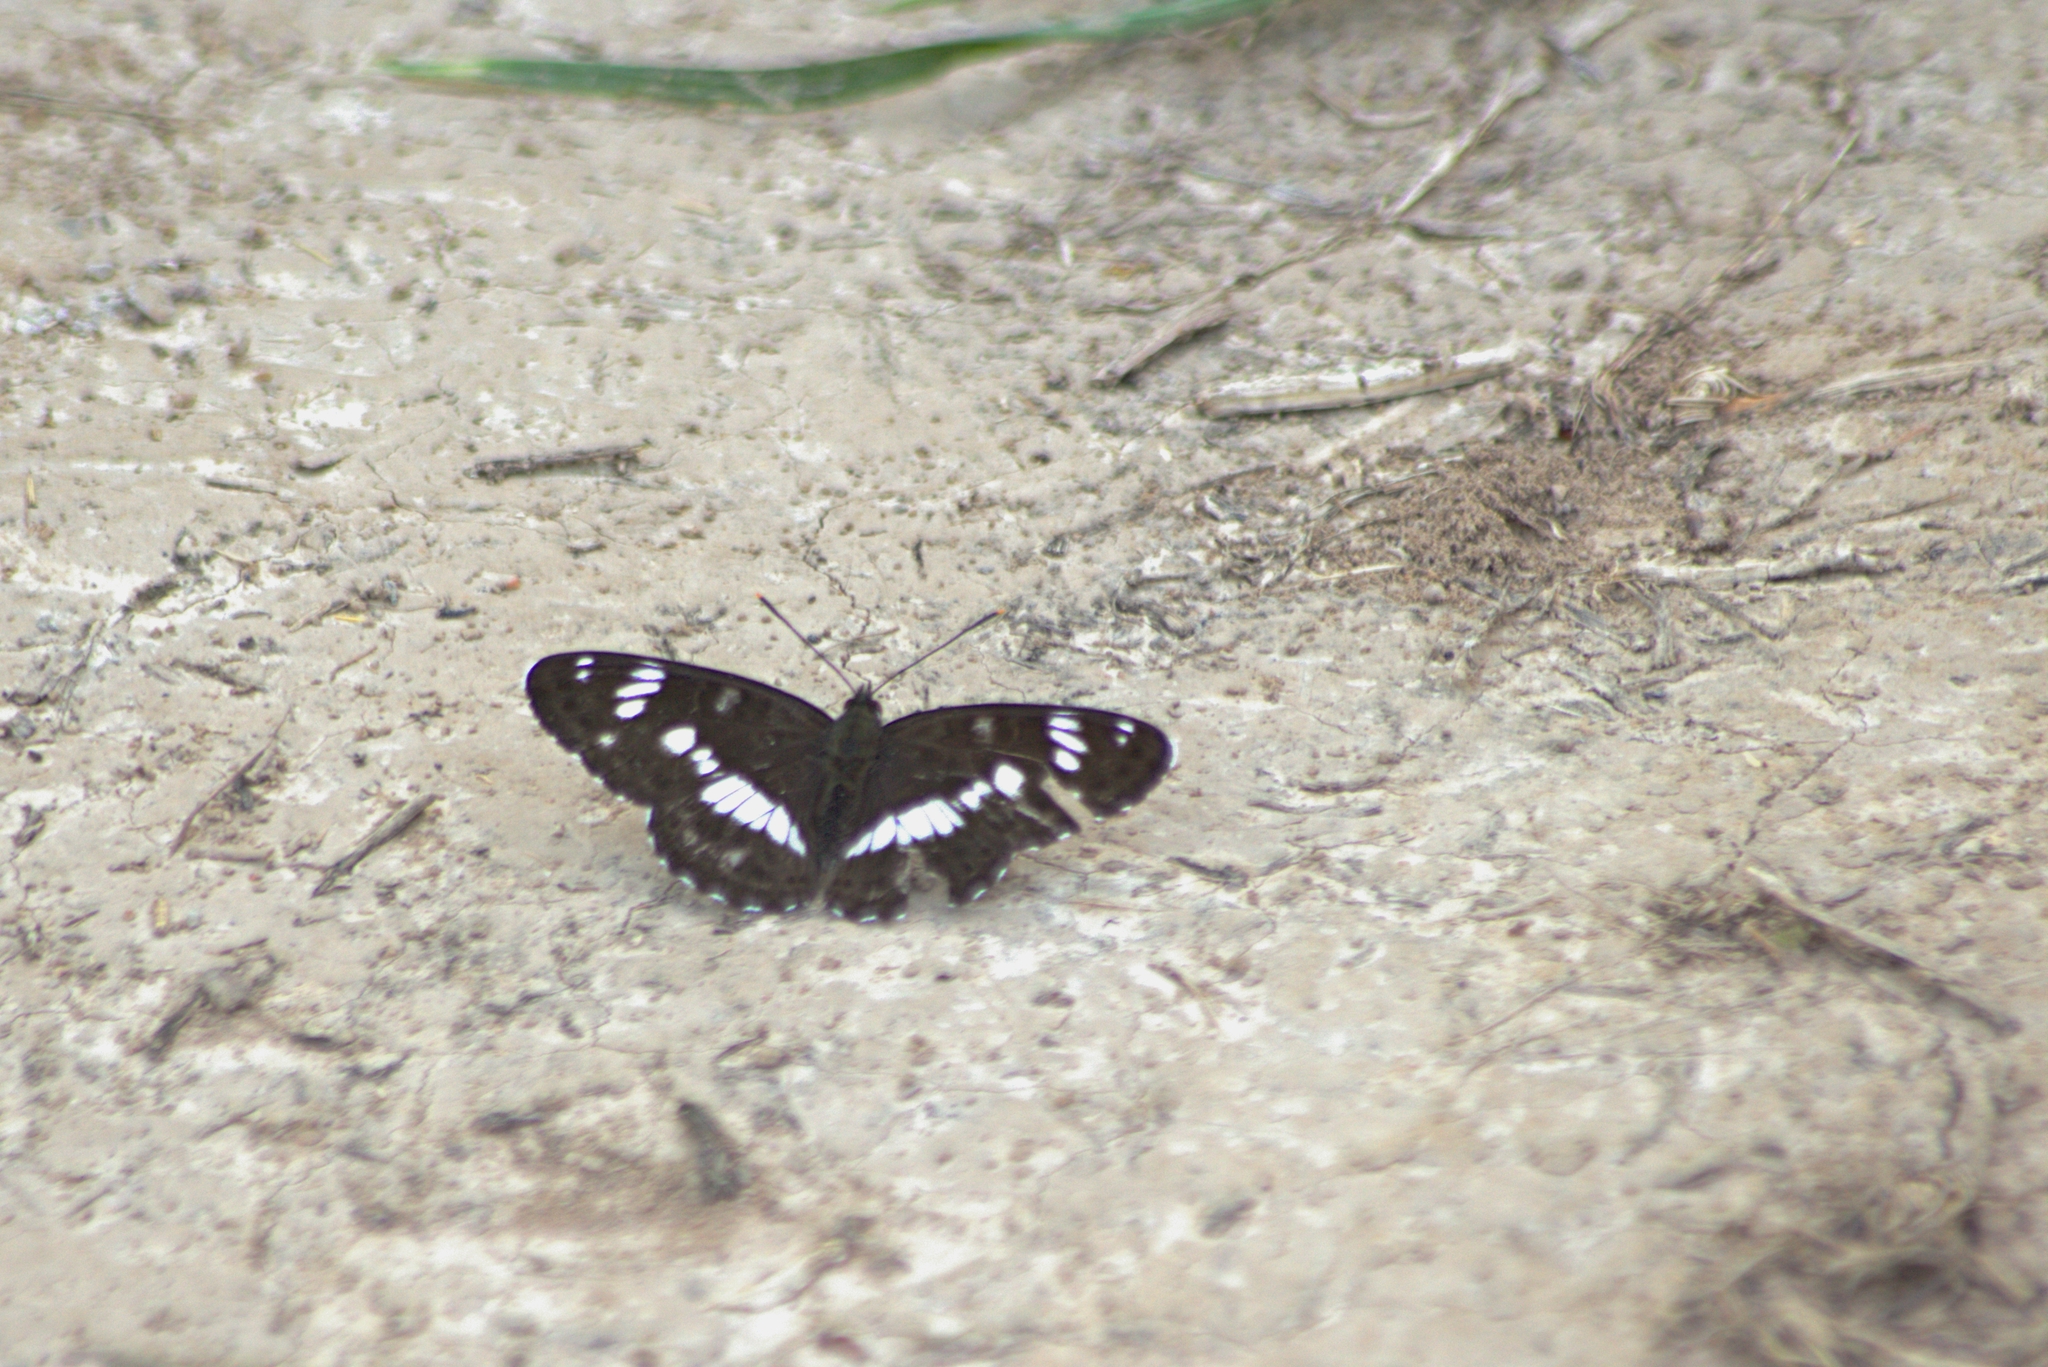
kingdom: Animalia
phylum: Arthropoda
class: Insecta
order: Lepidoptera
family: Nymphalidae
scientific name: Nymphalidae
